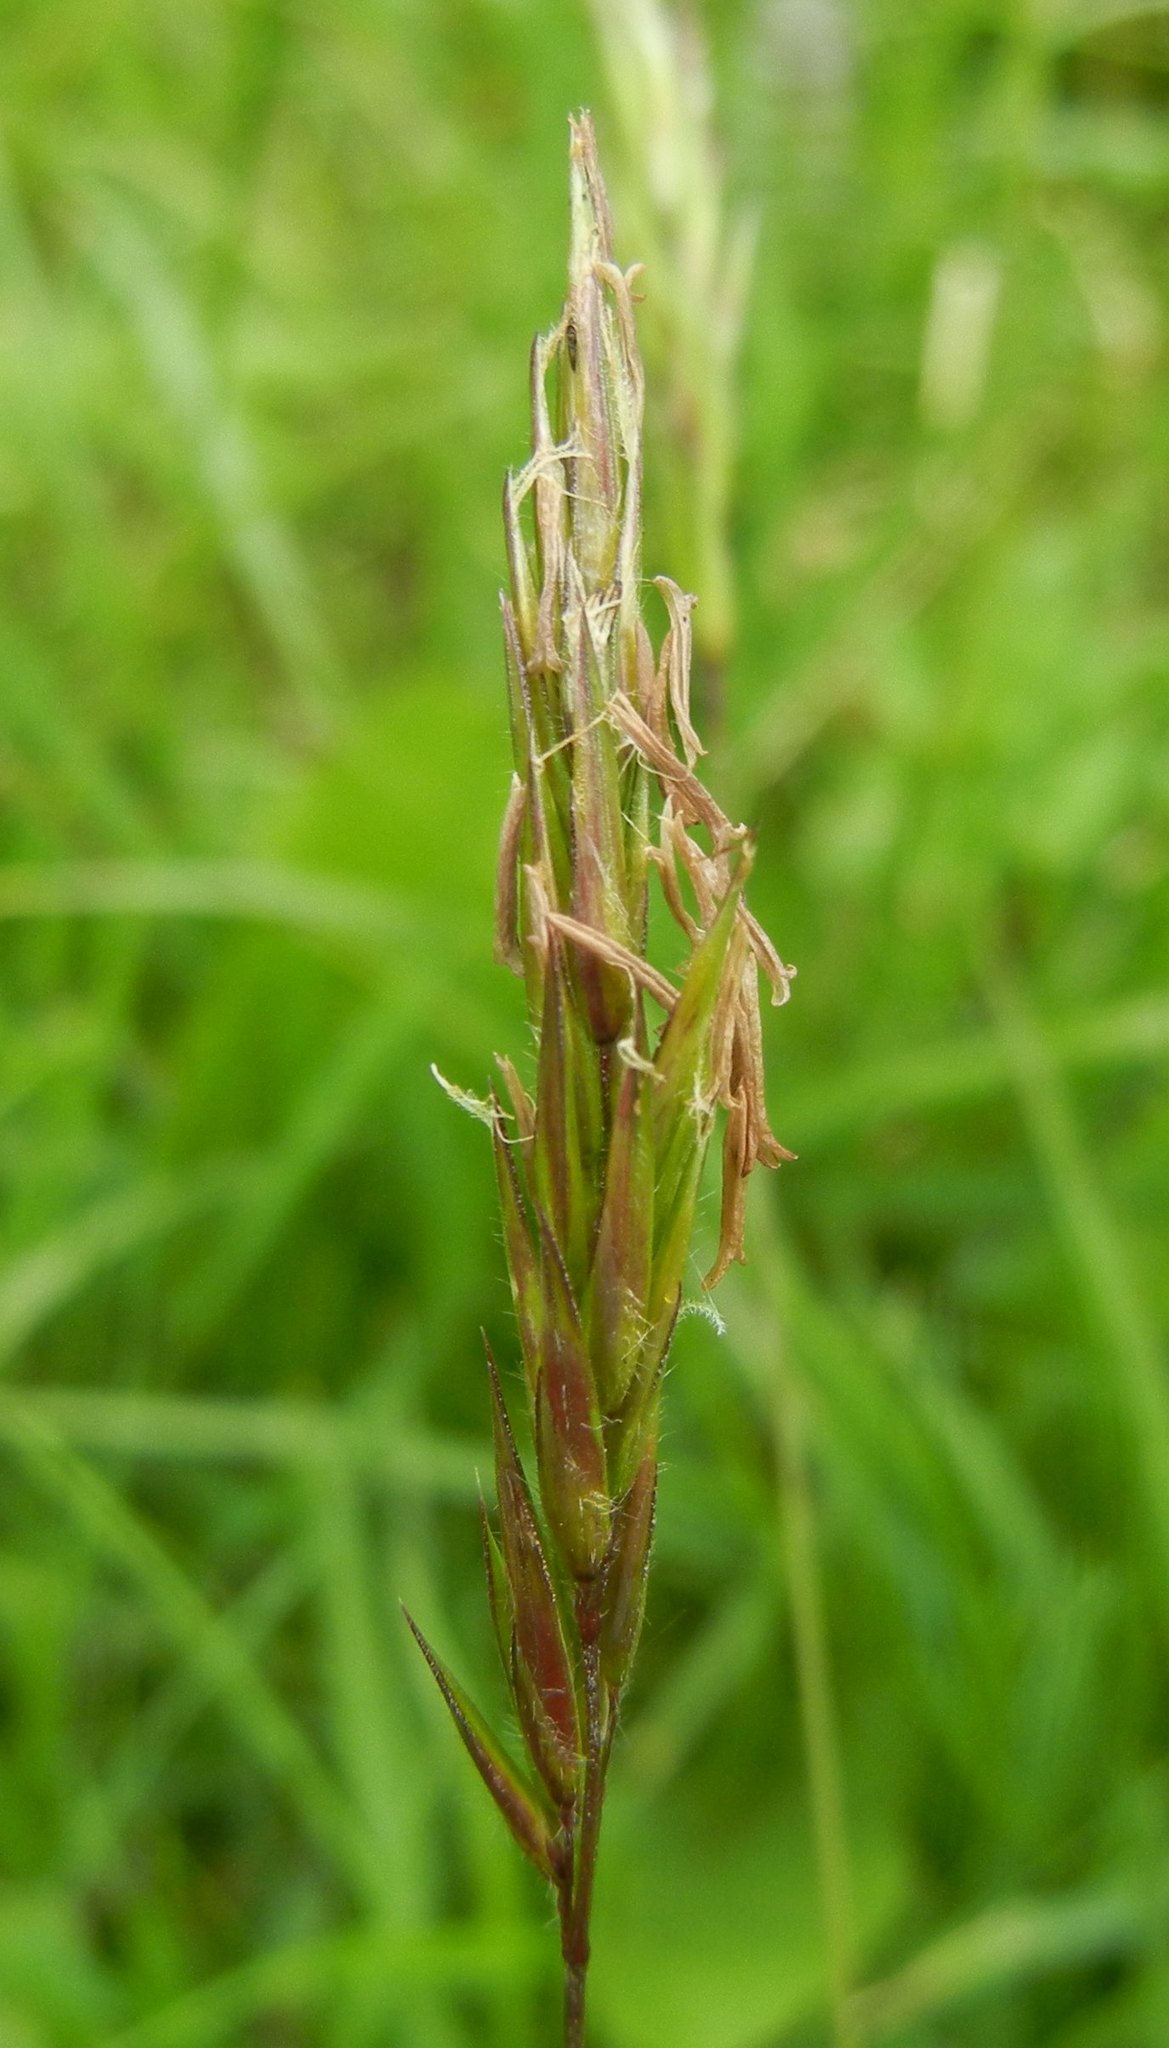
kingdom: Plantae
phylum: Tracheophyta
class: Liliopsida
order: Poales
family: Poaceae
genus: Anthoxanthum
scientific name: Anthoxanthum odoratum
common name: Sweet vernalgrass
